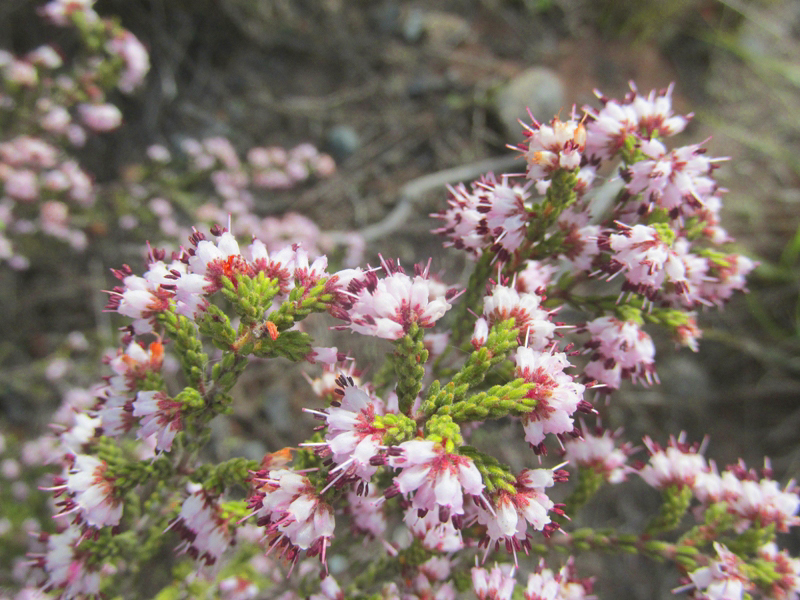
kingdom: Plantae
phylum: Tracheophyta
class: Magnoliopsida
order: Ericales
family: Ericaceae
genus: Erica
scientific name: Erica ericoides
